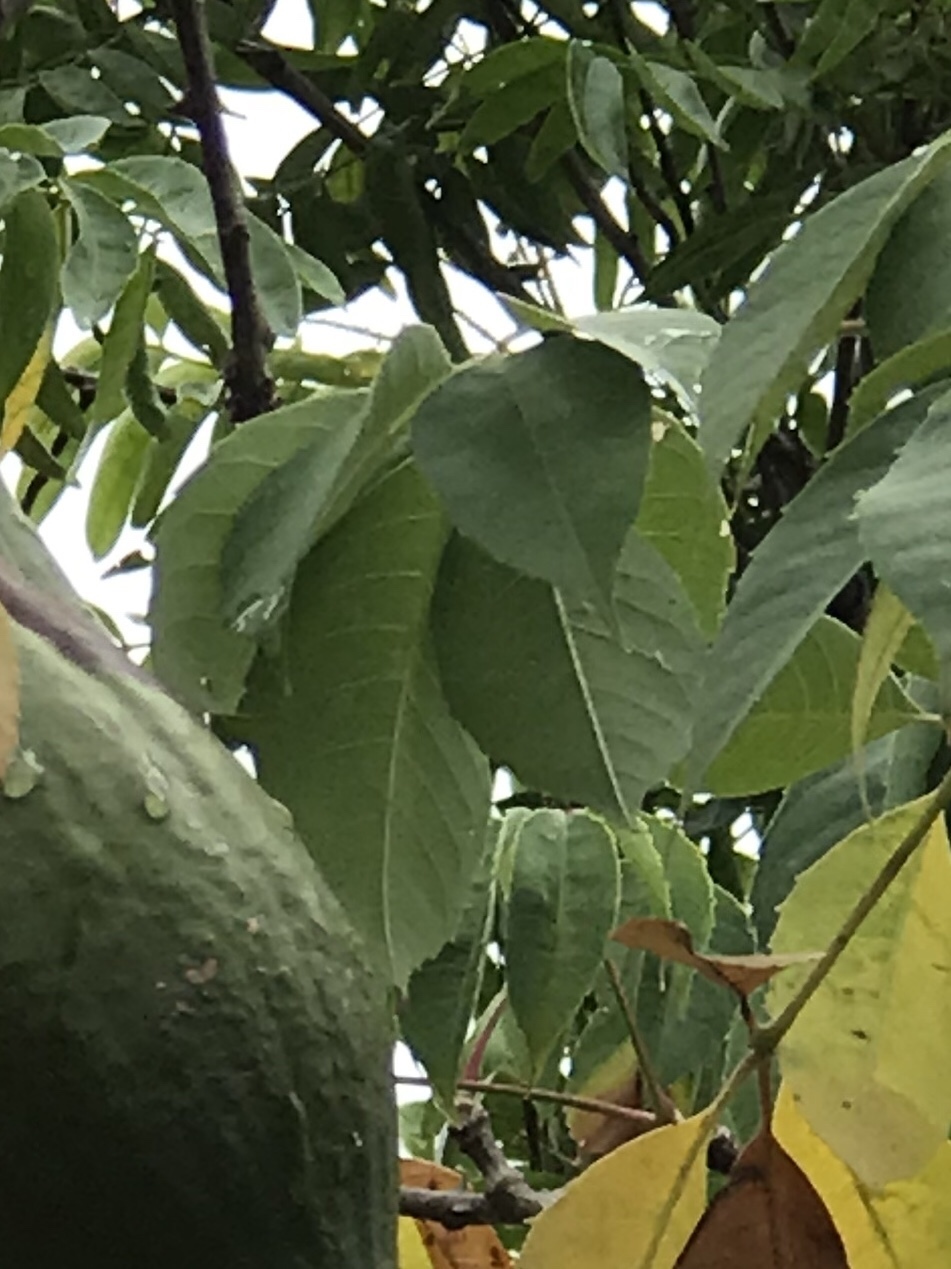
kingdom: Plantae
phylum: Tracheophyta
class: Magnoliopsida
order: Malvales
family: Malvaceae
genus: Ceiba
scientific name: Ceiba pentandra
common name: Kapok
